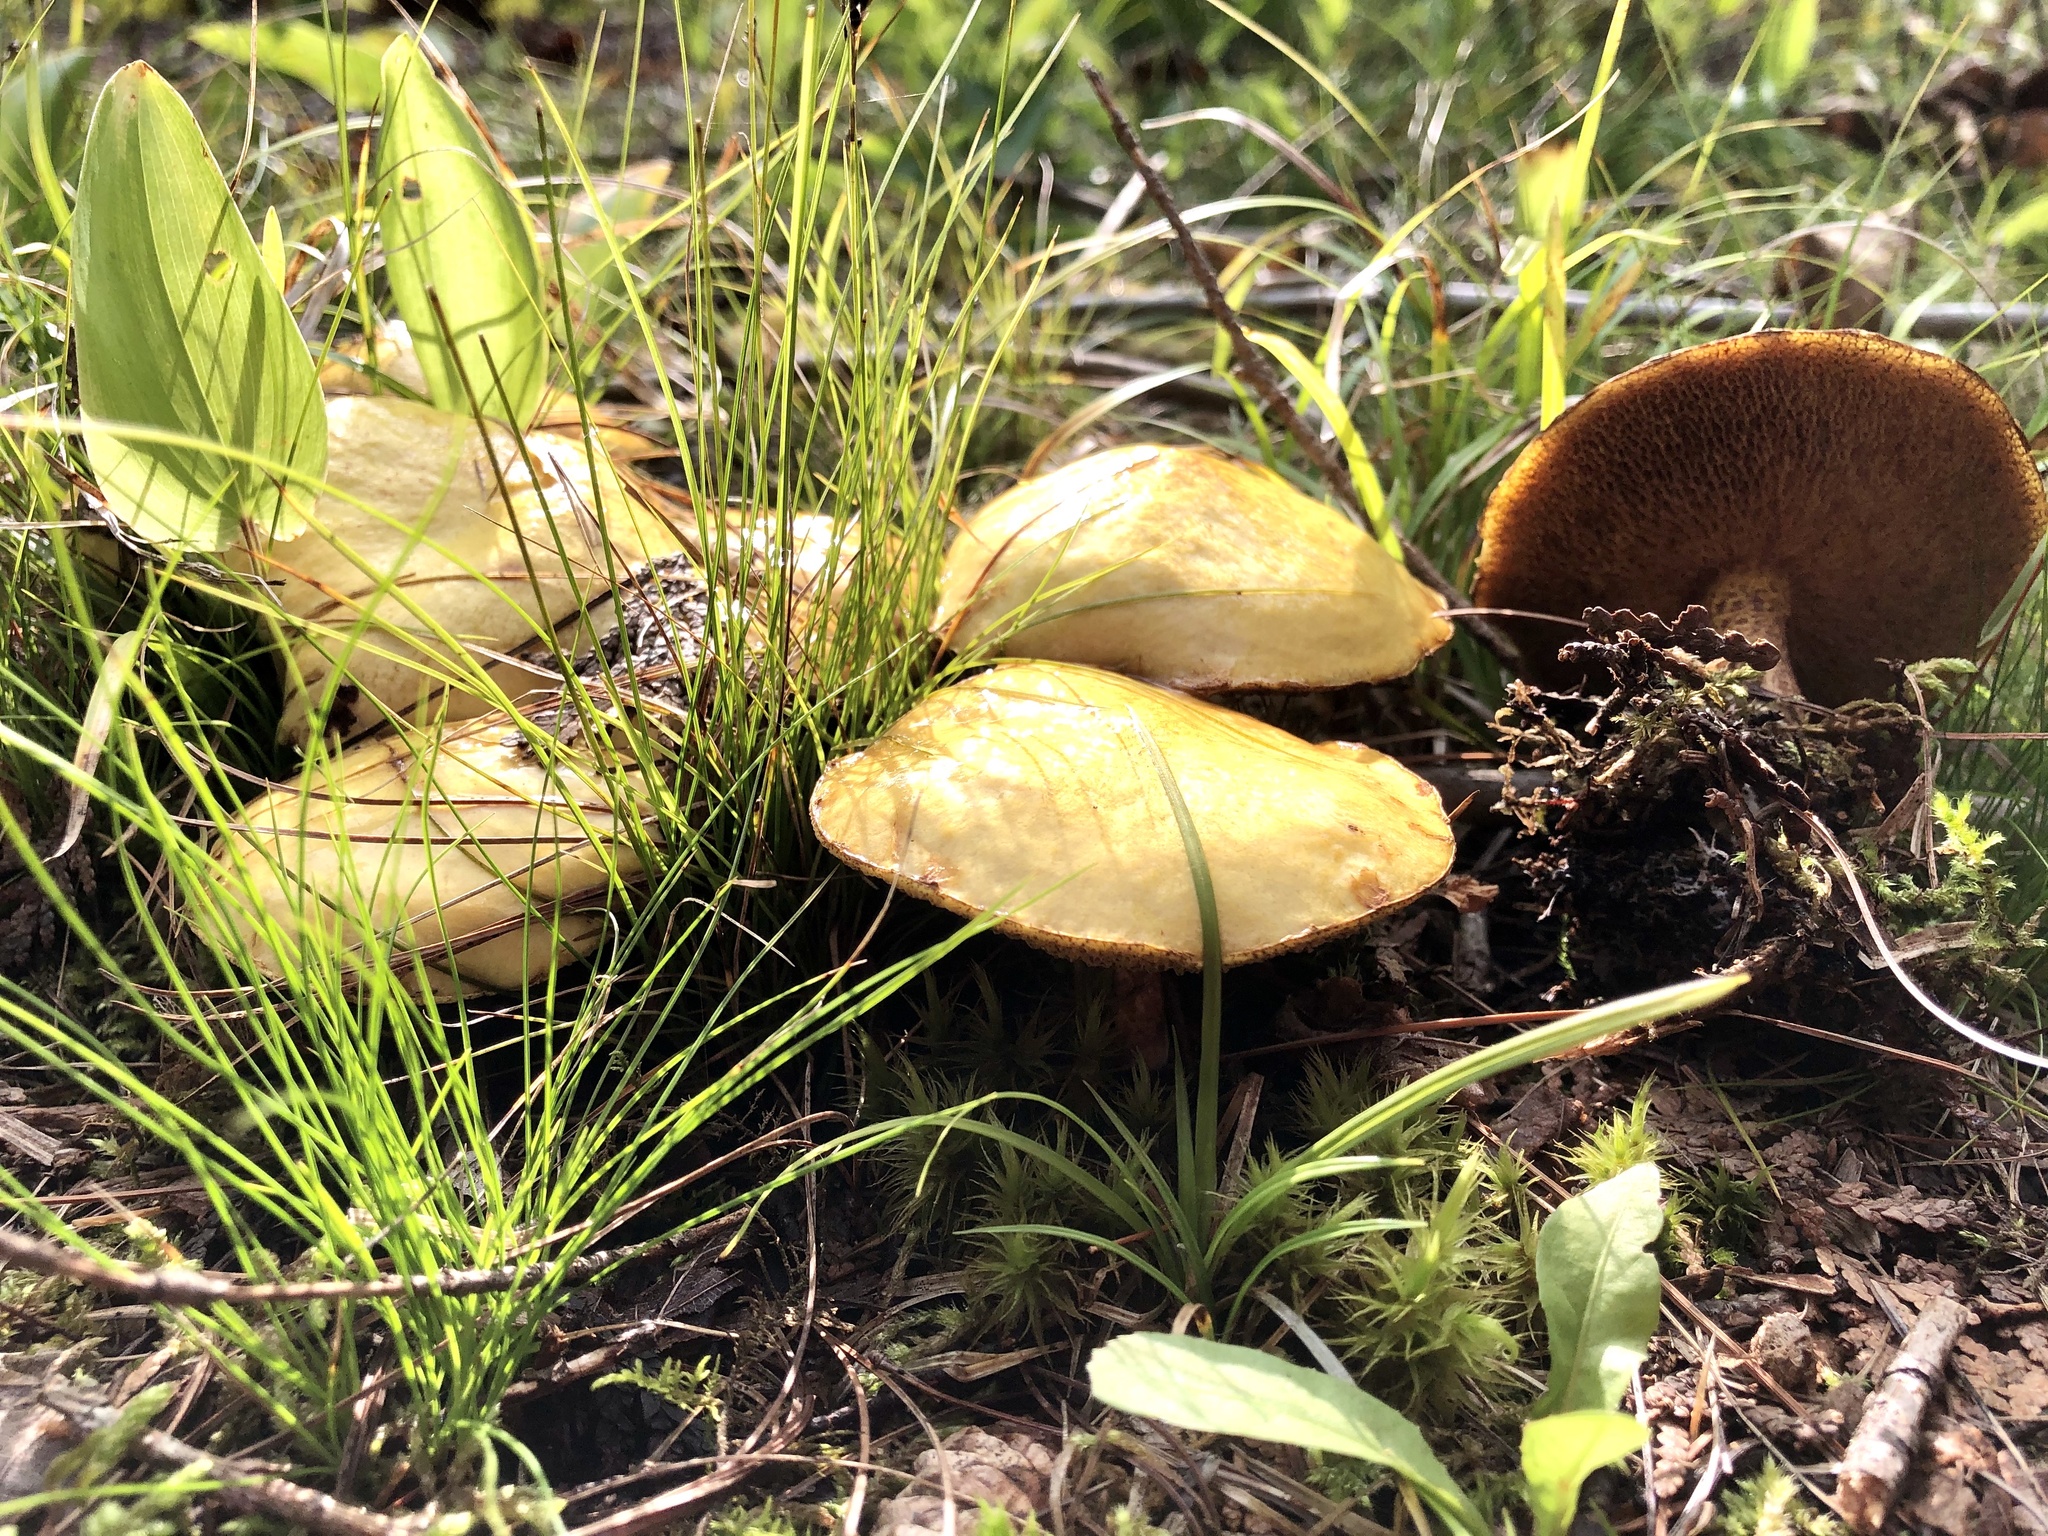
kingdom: Fungi
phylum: Basidiomycota
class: Agaricomycetes
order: Boletales
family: Suillaceae
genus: Suillus
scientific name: Suillus americanus
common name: Chicken fat mushroom
